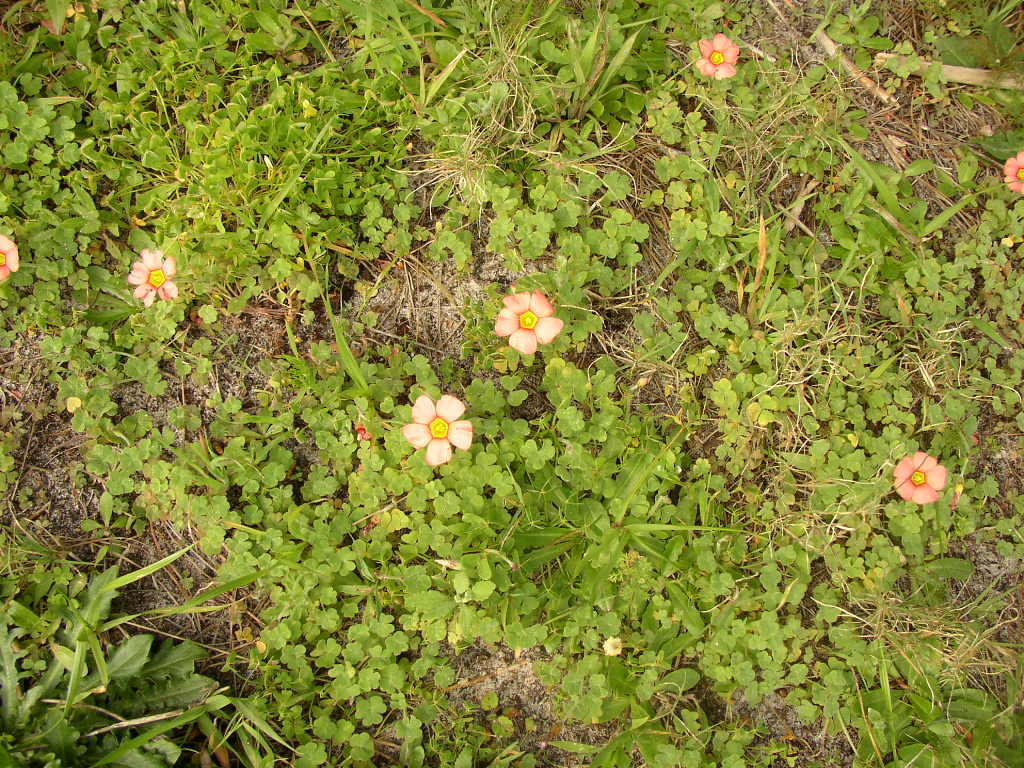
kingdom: Plantae
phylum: Tracheophyta
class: Magnoliopsida
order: Oxalidales
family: Oxalidaceae
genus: Oxalis
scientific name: Oxalis obtusa
